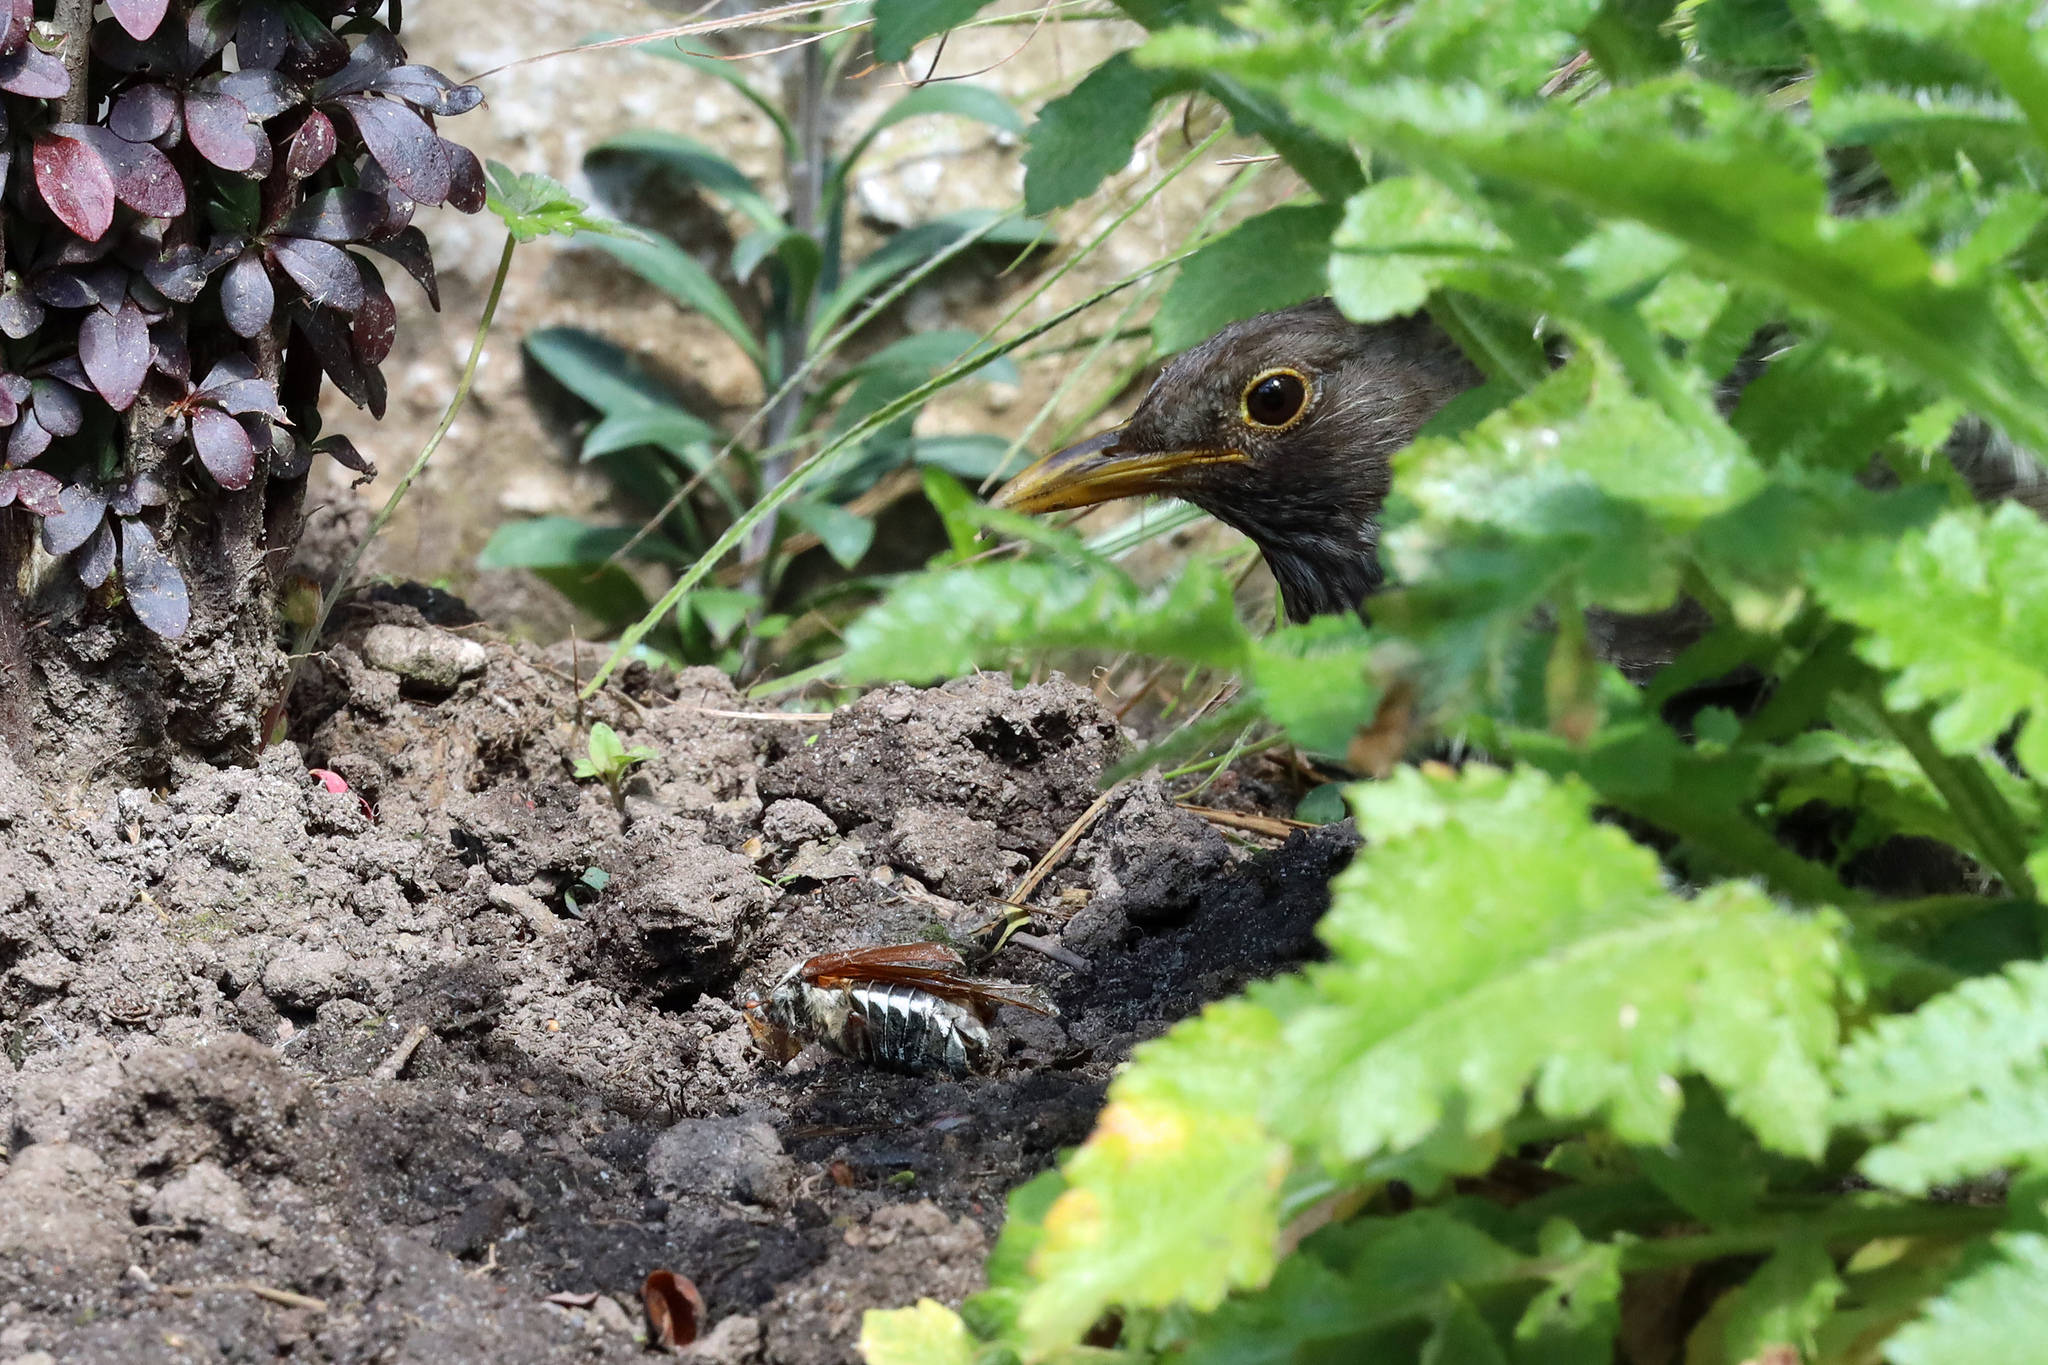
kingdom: Animalia
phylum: Chordata
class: Aves
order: Passeriformes
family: Turdidae
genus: Turdus
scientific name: Turdus merula
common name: Common blackbird
